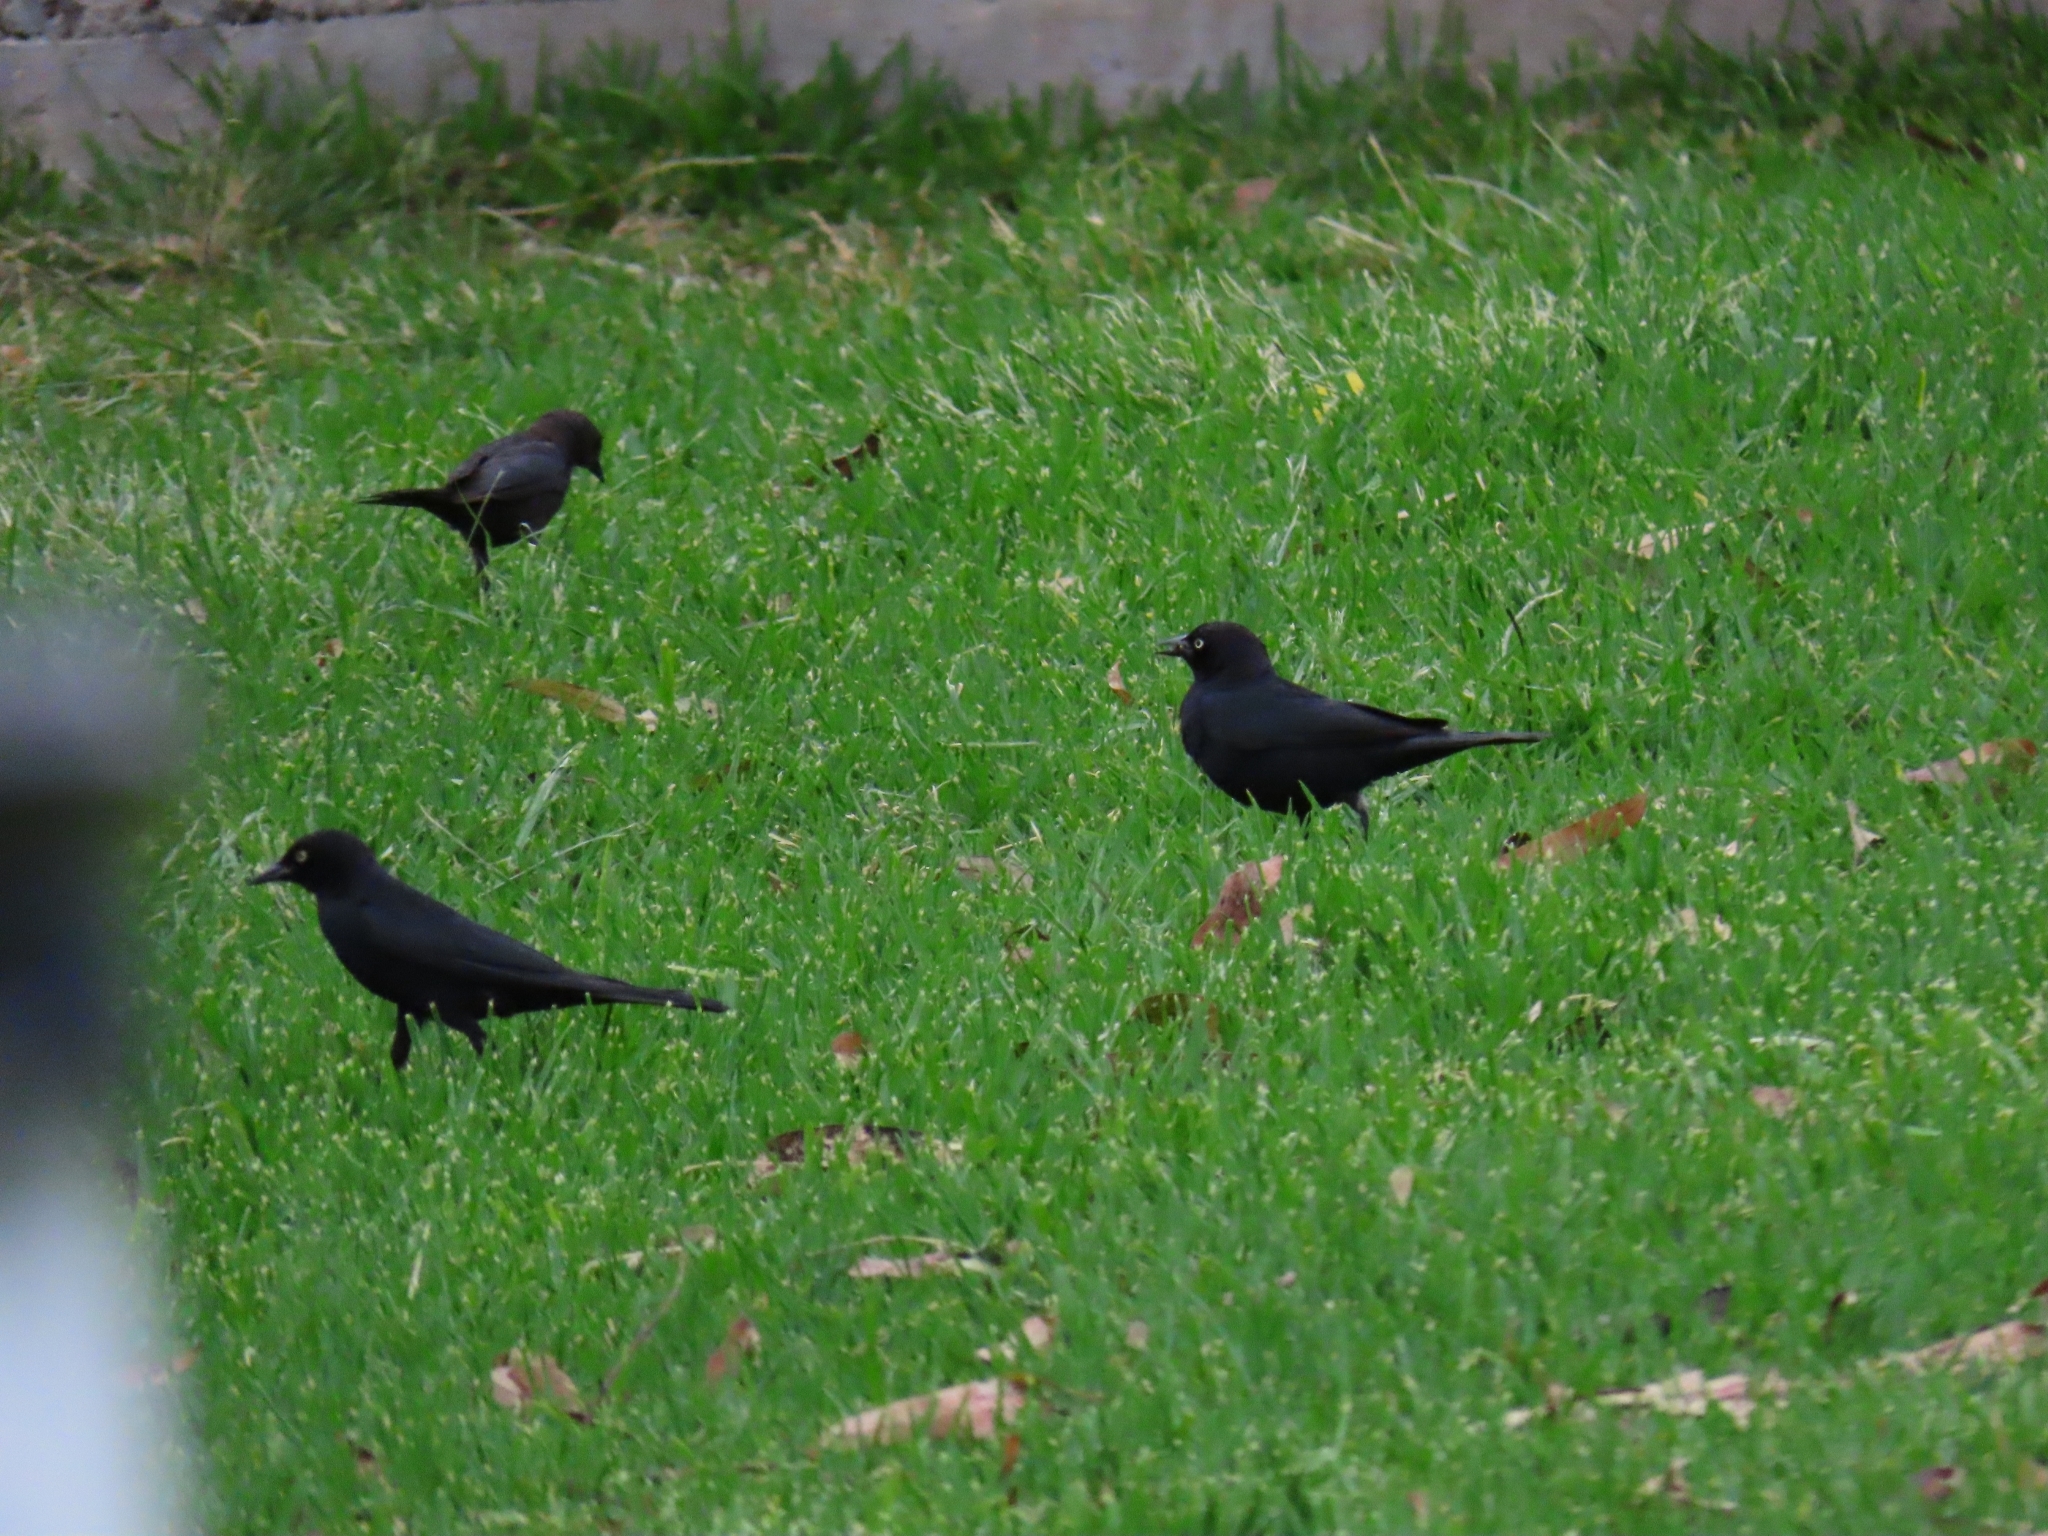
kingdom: Animalia
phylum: Chordata
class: Aves
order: Passeriformes
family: Icteridae
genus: Euphagus
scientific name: Euphagus cyanocephalus
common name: Brewer's blackbird
